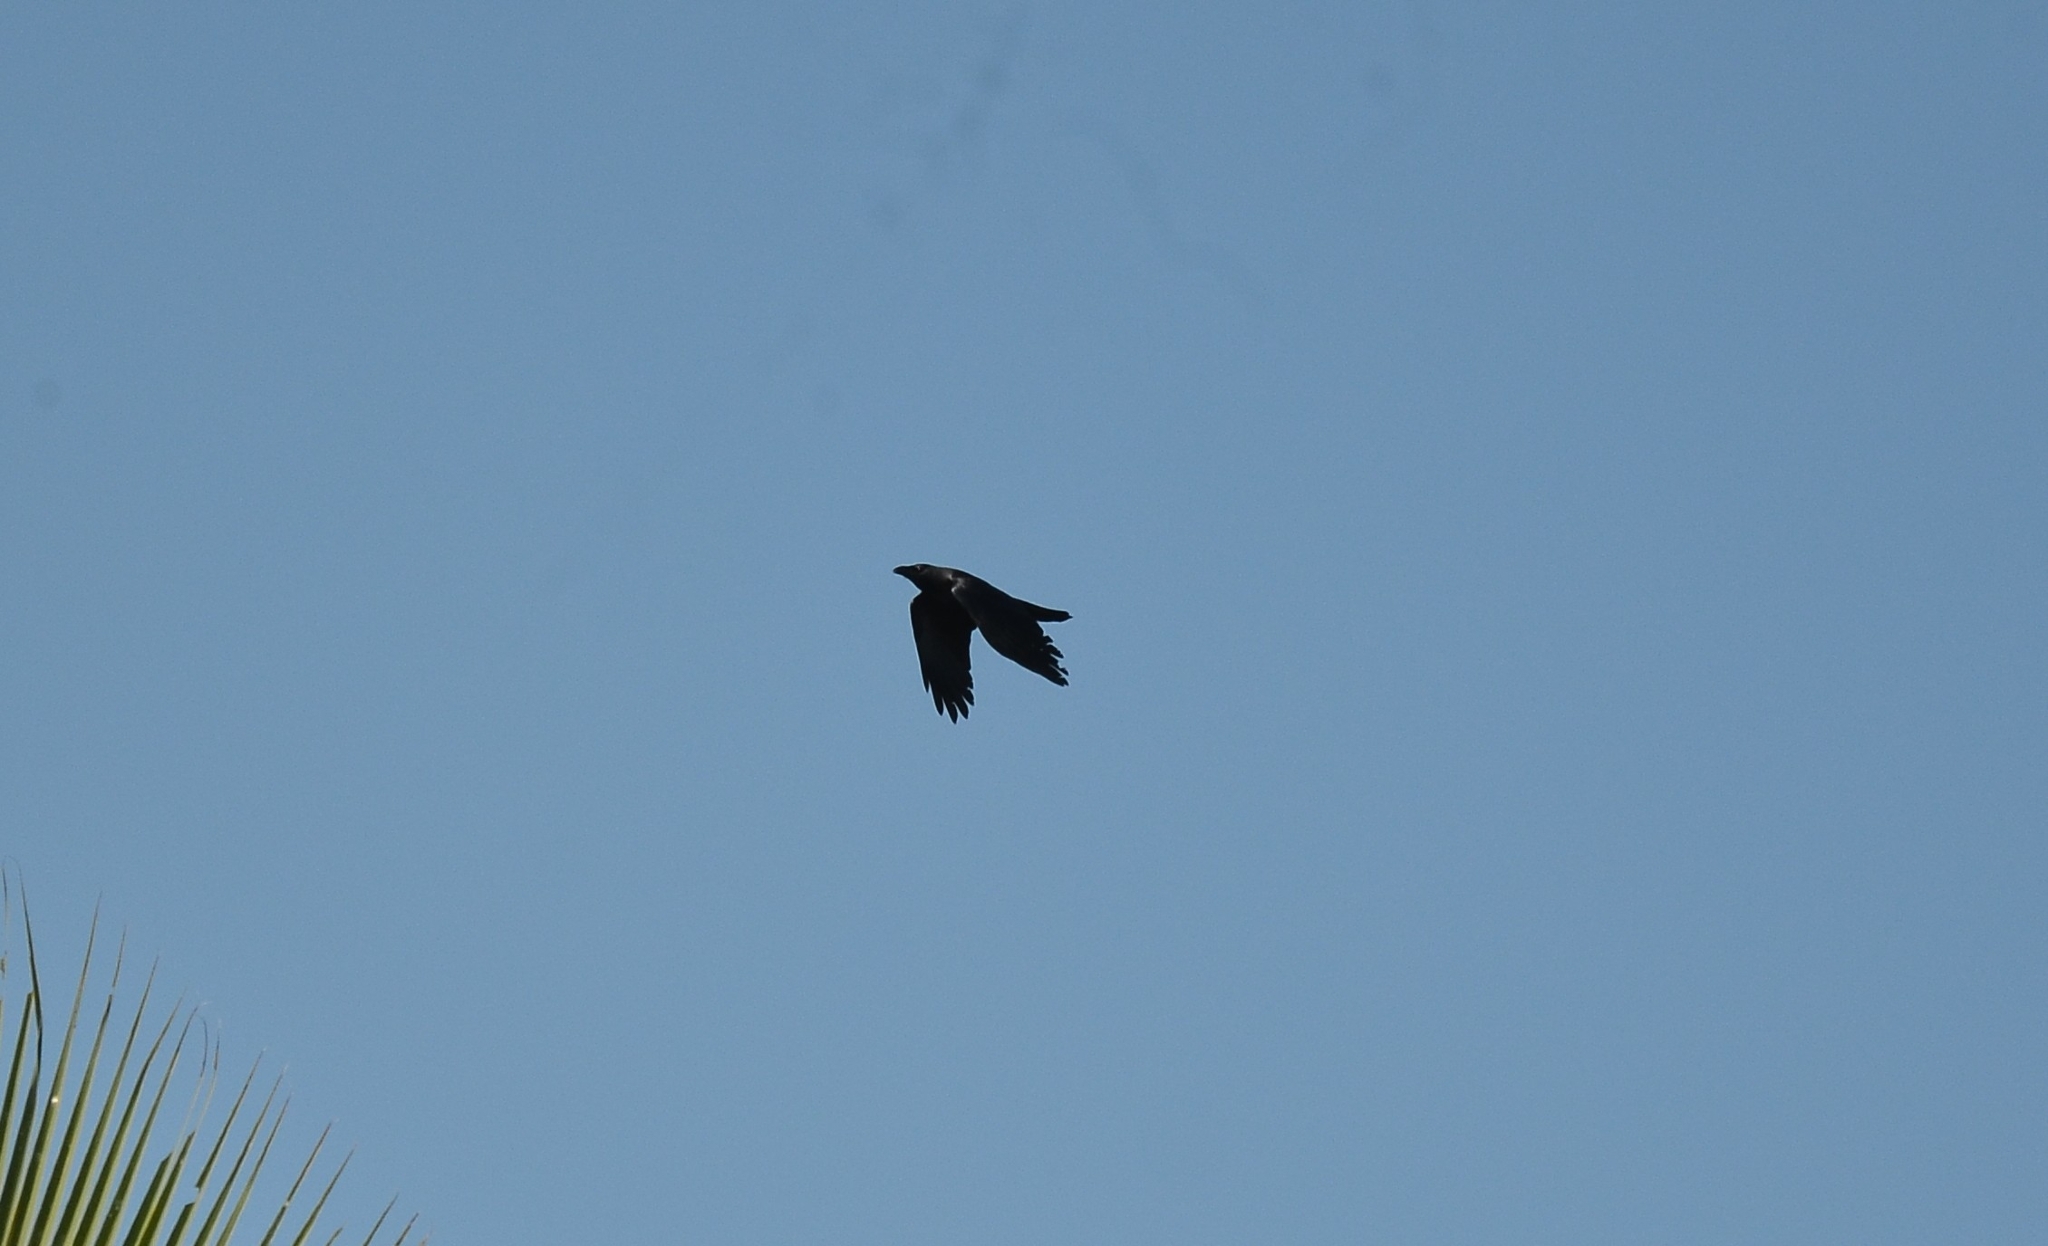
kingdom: Animalia
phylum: Chordata
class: Aves
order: Passeriformes
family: Corvidae
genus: Corvus
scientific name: Corvus splendens
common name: House crow
